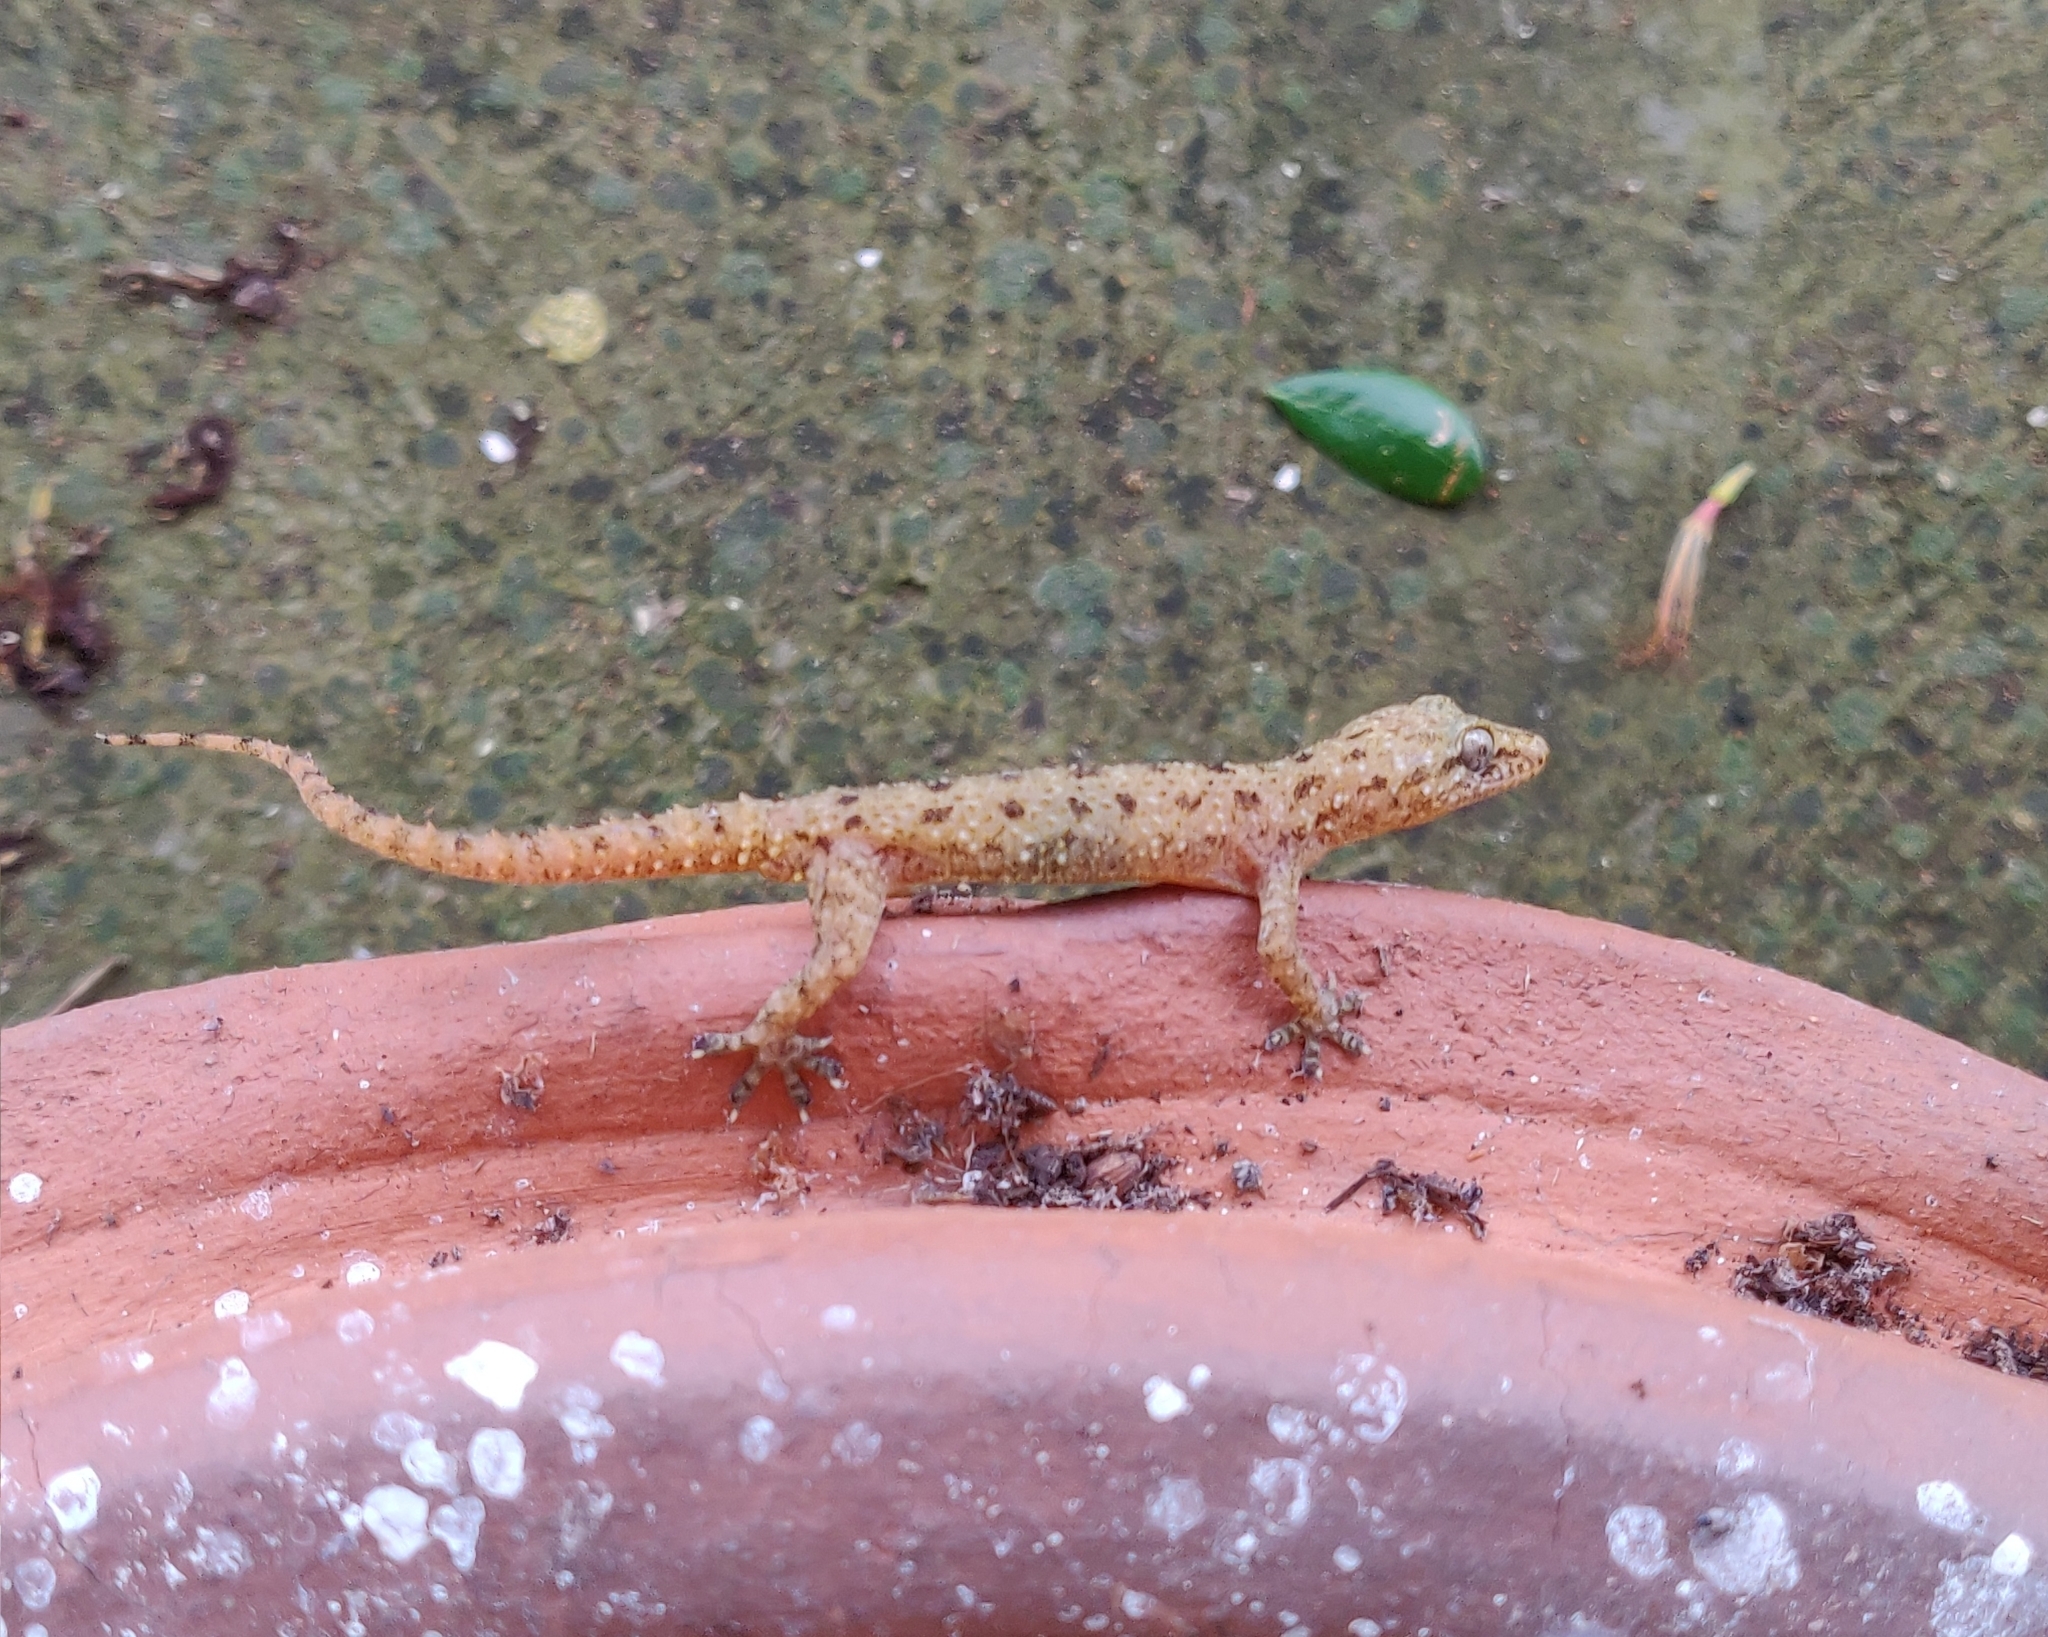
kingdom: Animalia
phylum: Chordata
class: Squamata
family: Gekkonidae
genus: Hemidactylus
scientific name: Hemidactylus parvimaculatus
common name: Spotted house gecko
